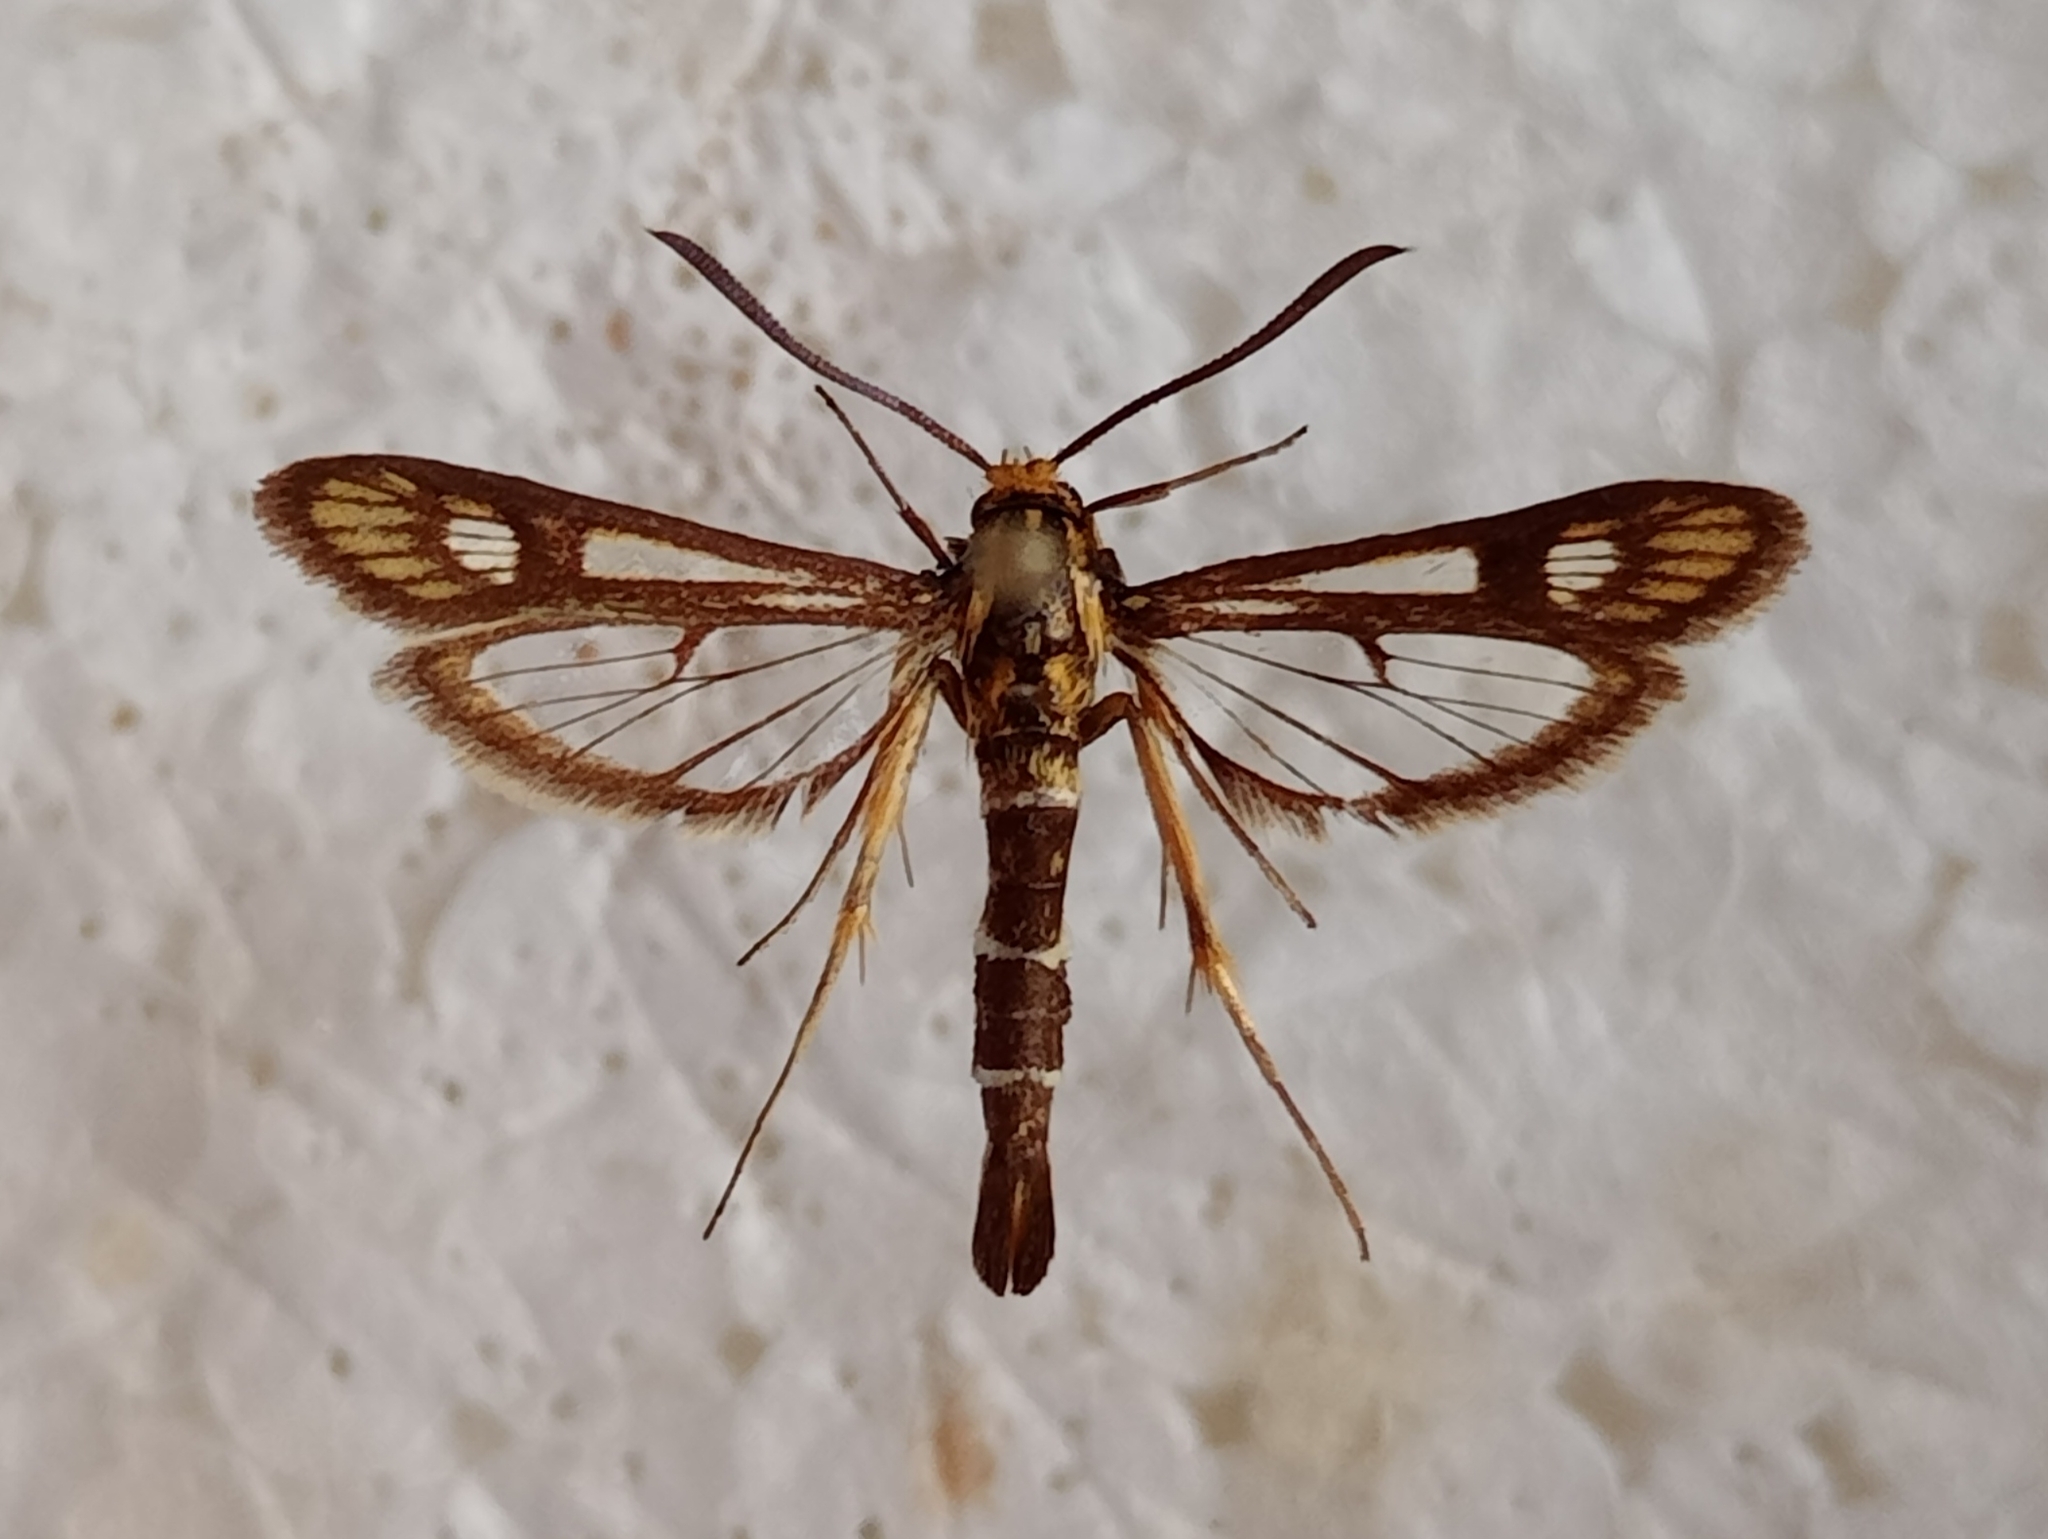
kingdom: Animalia
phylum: Arthropoda
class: Insecta
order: Lepidoptera
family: Sesiidae
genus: Chamaesphecia
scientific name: Chamaesphecia astatiformis
